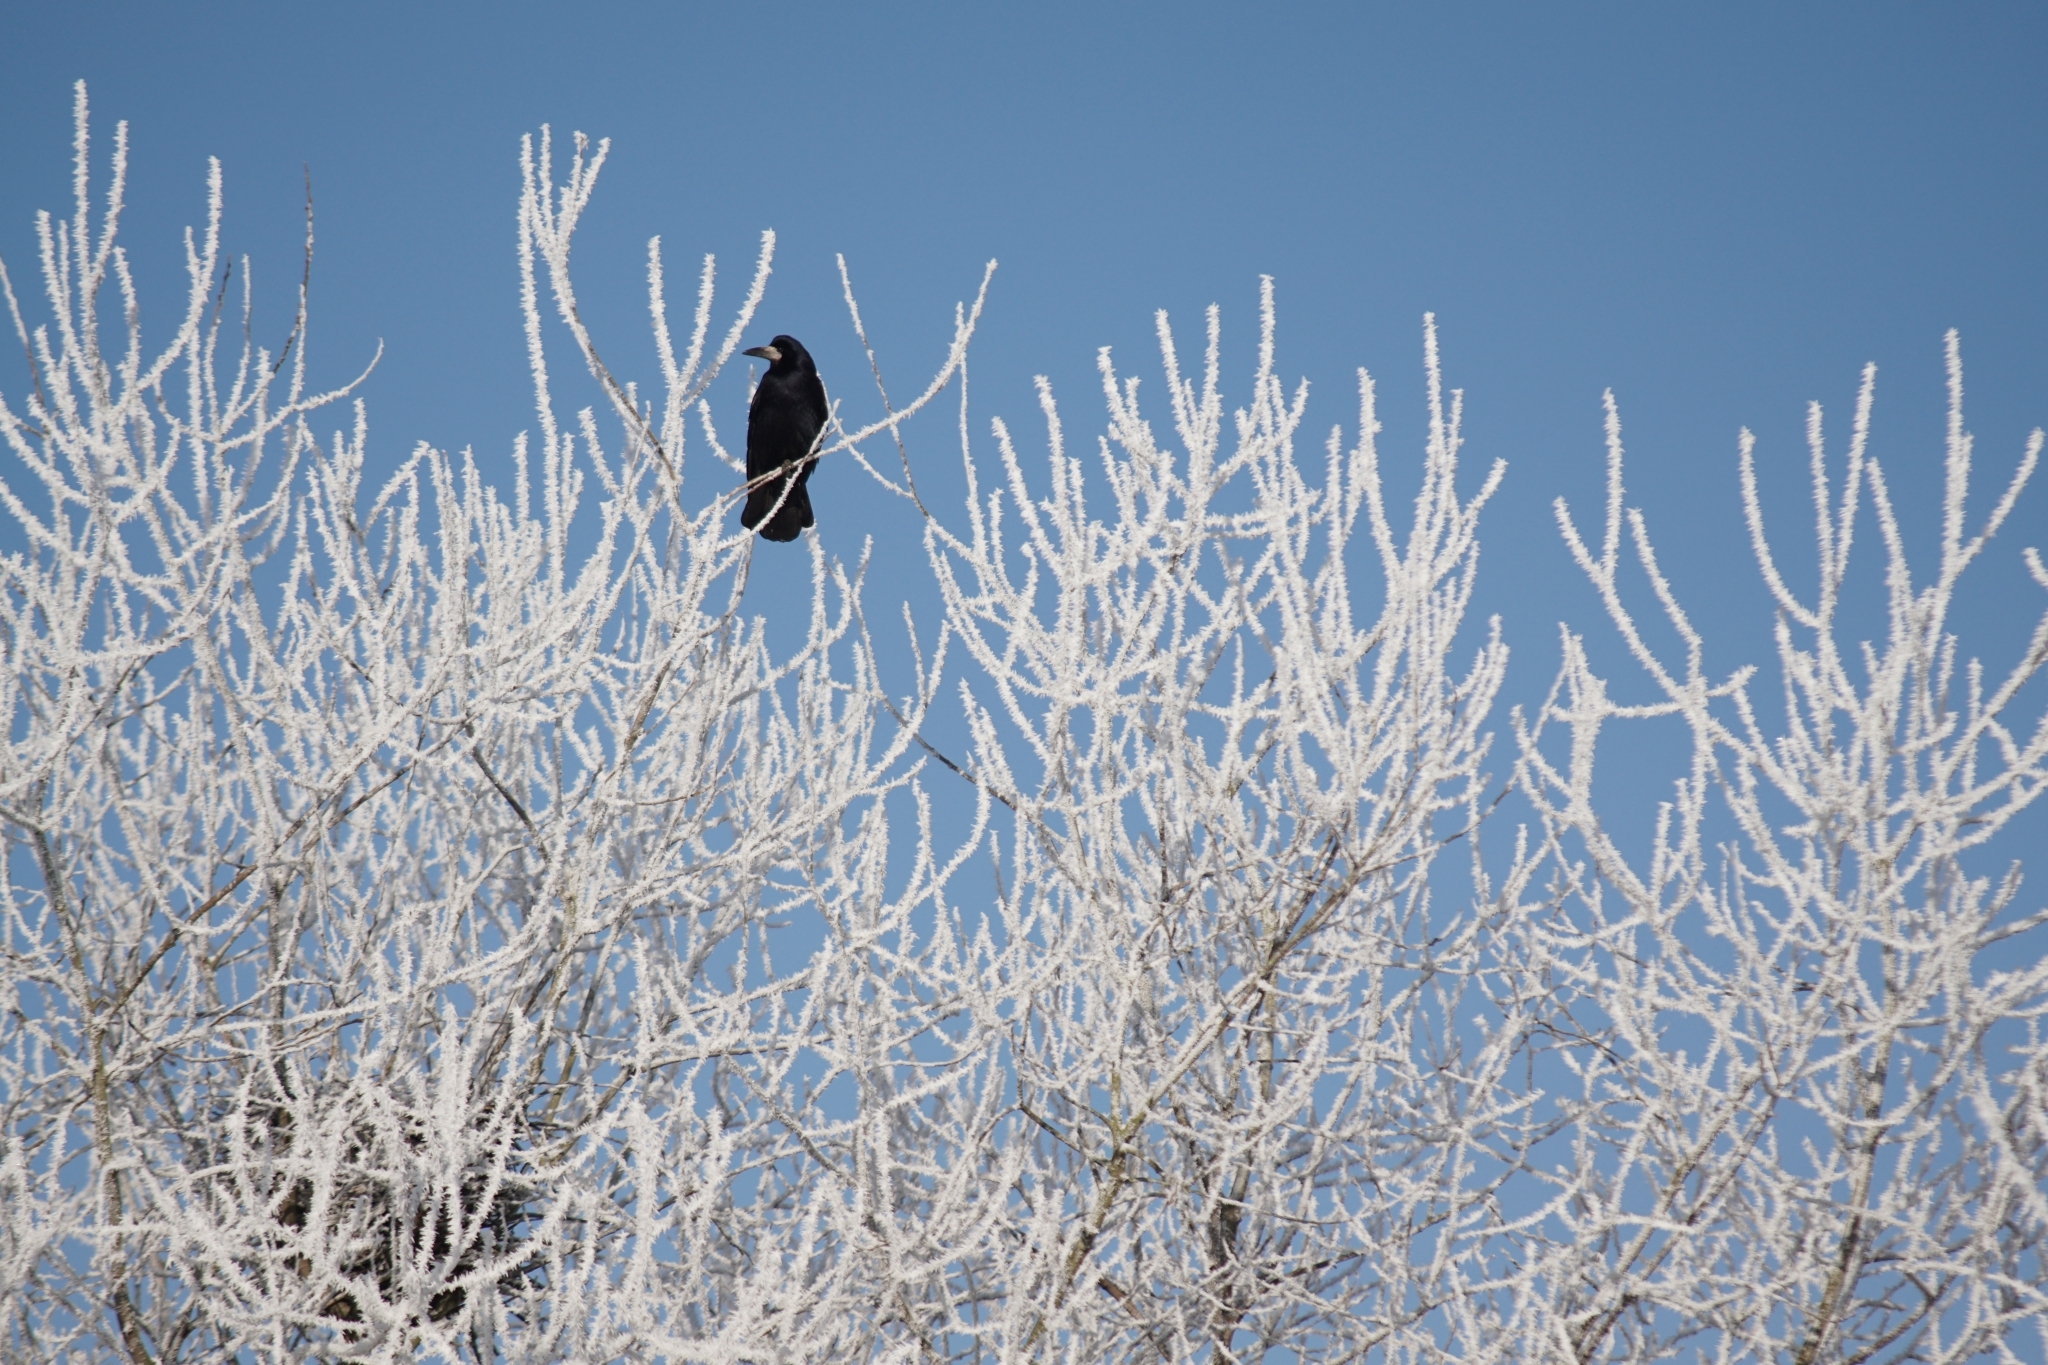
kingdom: Animalia
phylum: Chordata
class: Aves
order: Passeriformes
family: Corvidae
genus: Corvus
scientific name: Corvus frugilegus
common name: Rook
